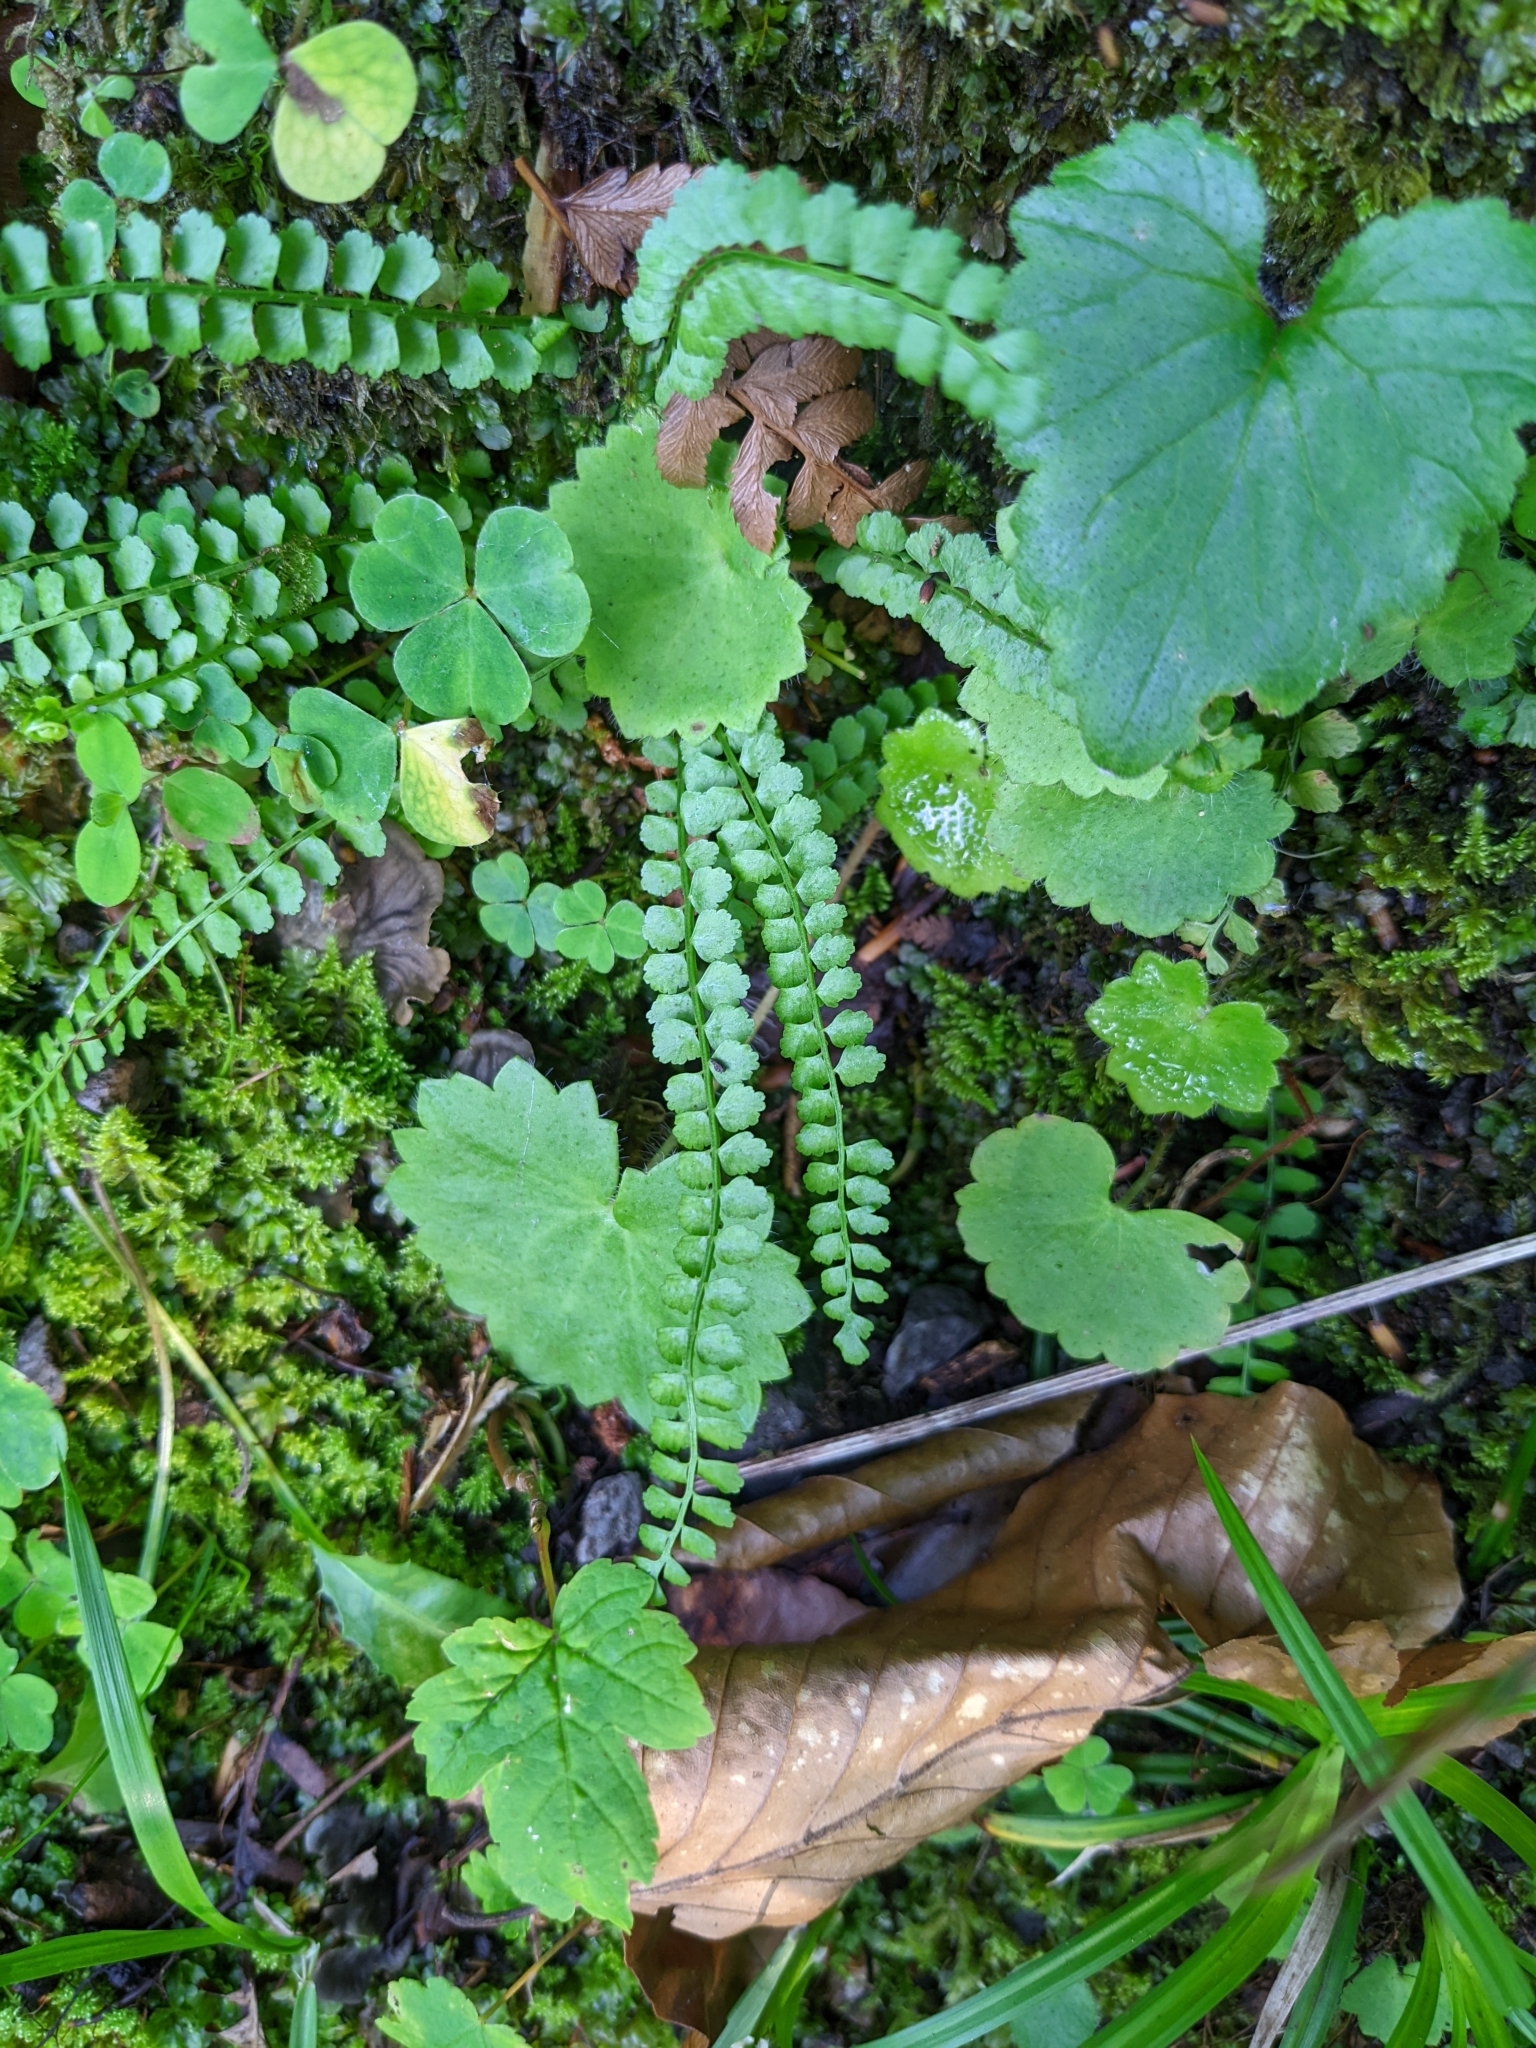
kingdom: Plantae
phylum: Tracheophyta
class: Polypodiopsida
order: Polypodiales
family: Aspleniaceae
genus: Asplenium
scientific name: Asplenium viride
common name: Green spleenwort
